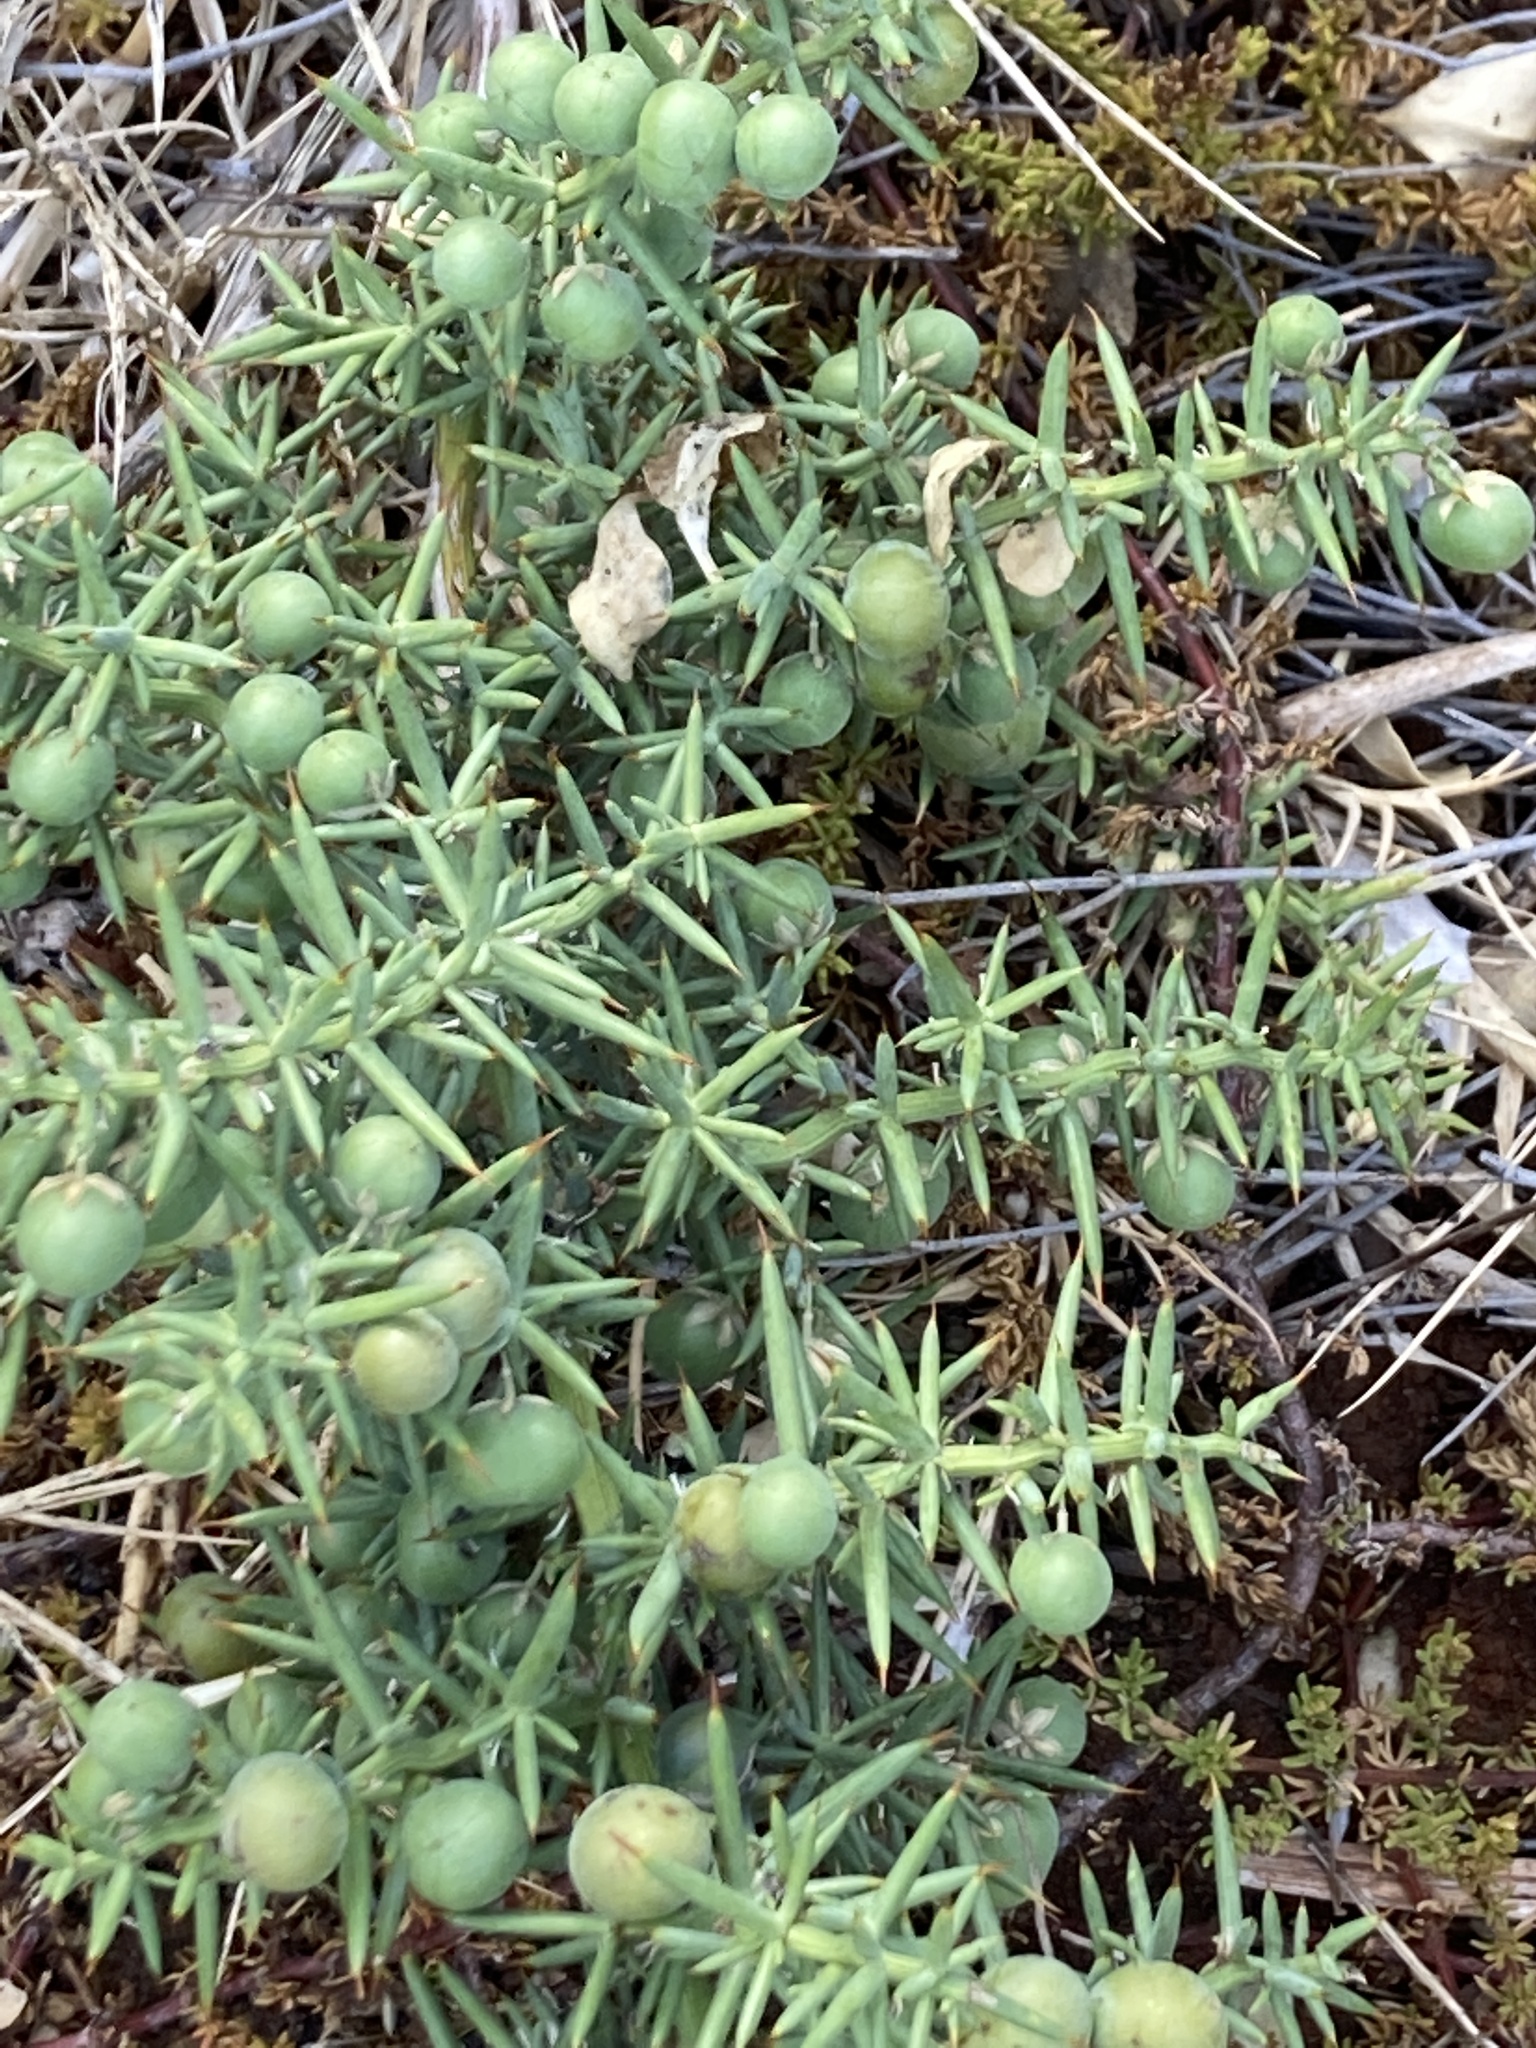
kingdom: Plantae
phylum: Tracheophyta
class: Liliopsida
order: Asparagales
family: Asparagaceae
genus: Asparagus
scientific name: Asparagus aphyllus
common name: Mediterranean asparagus
